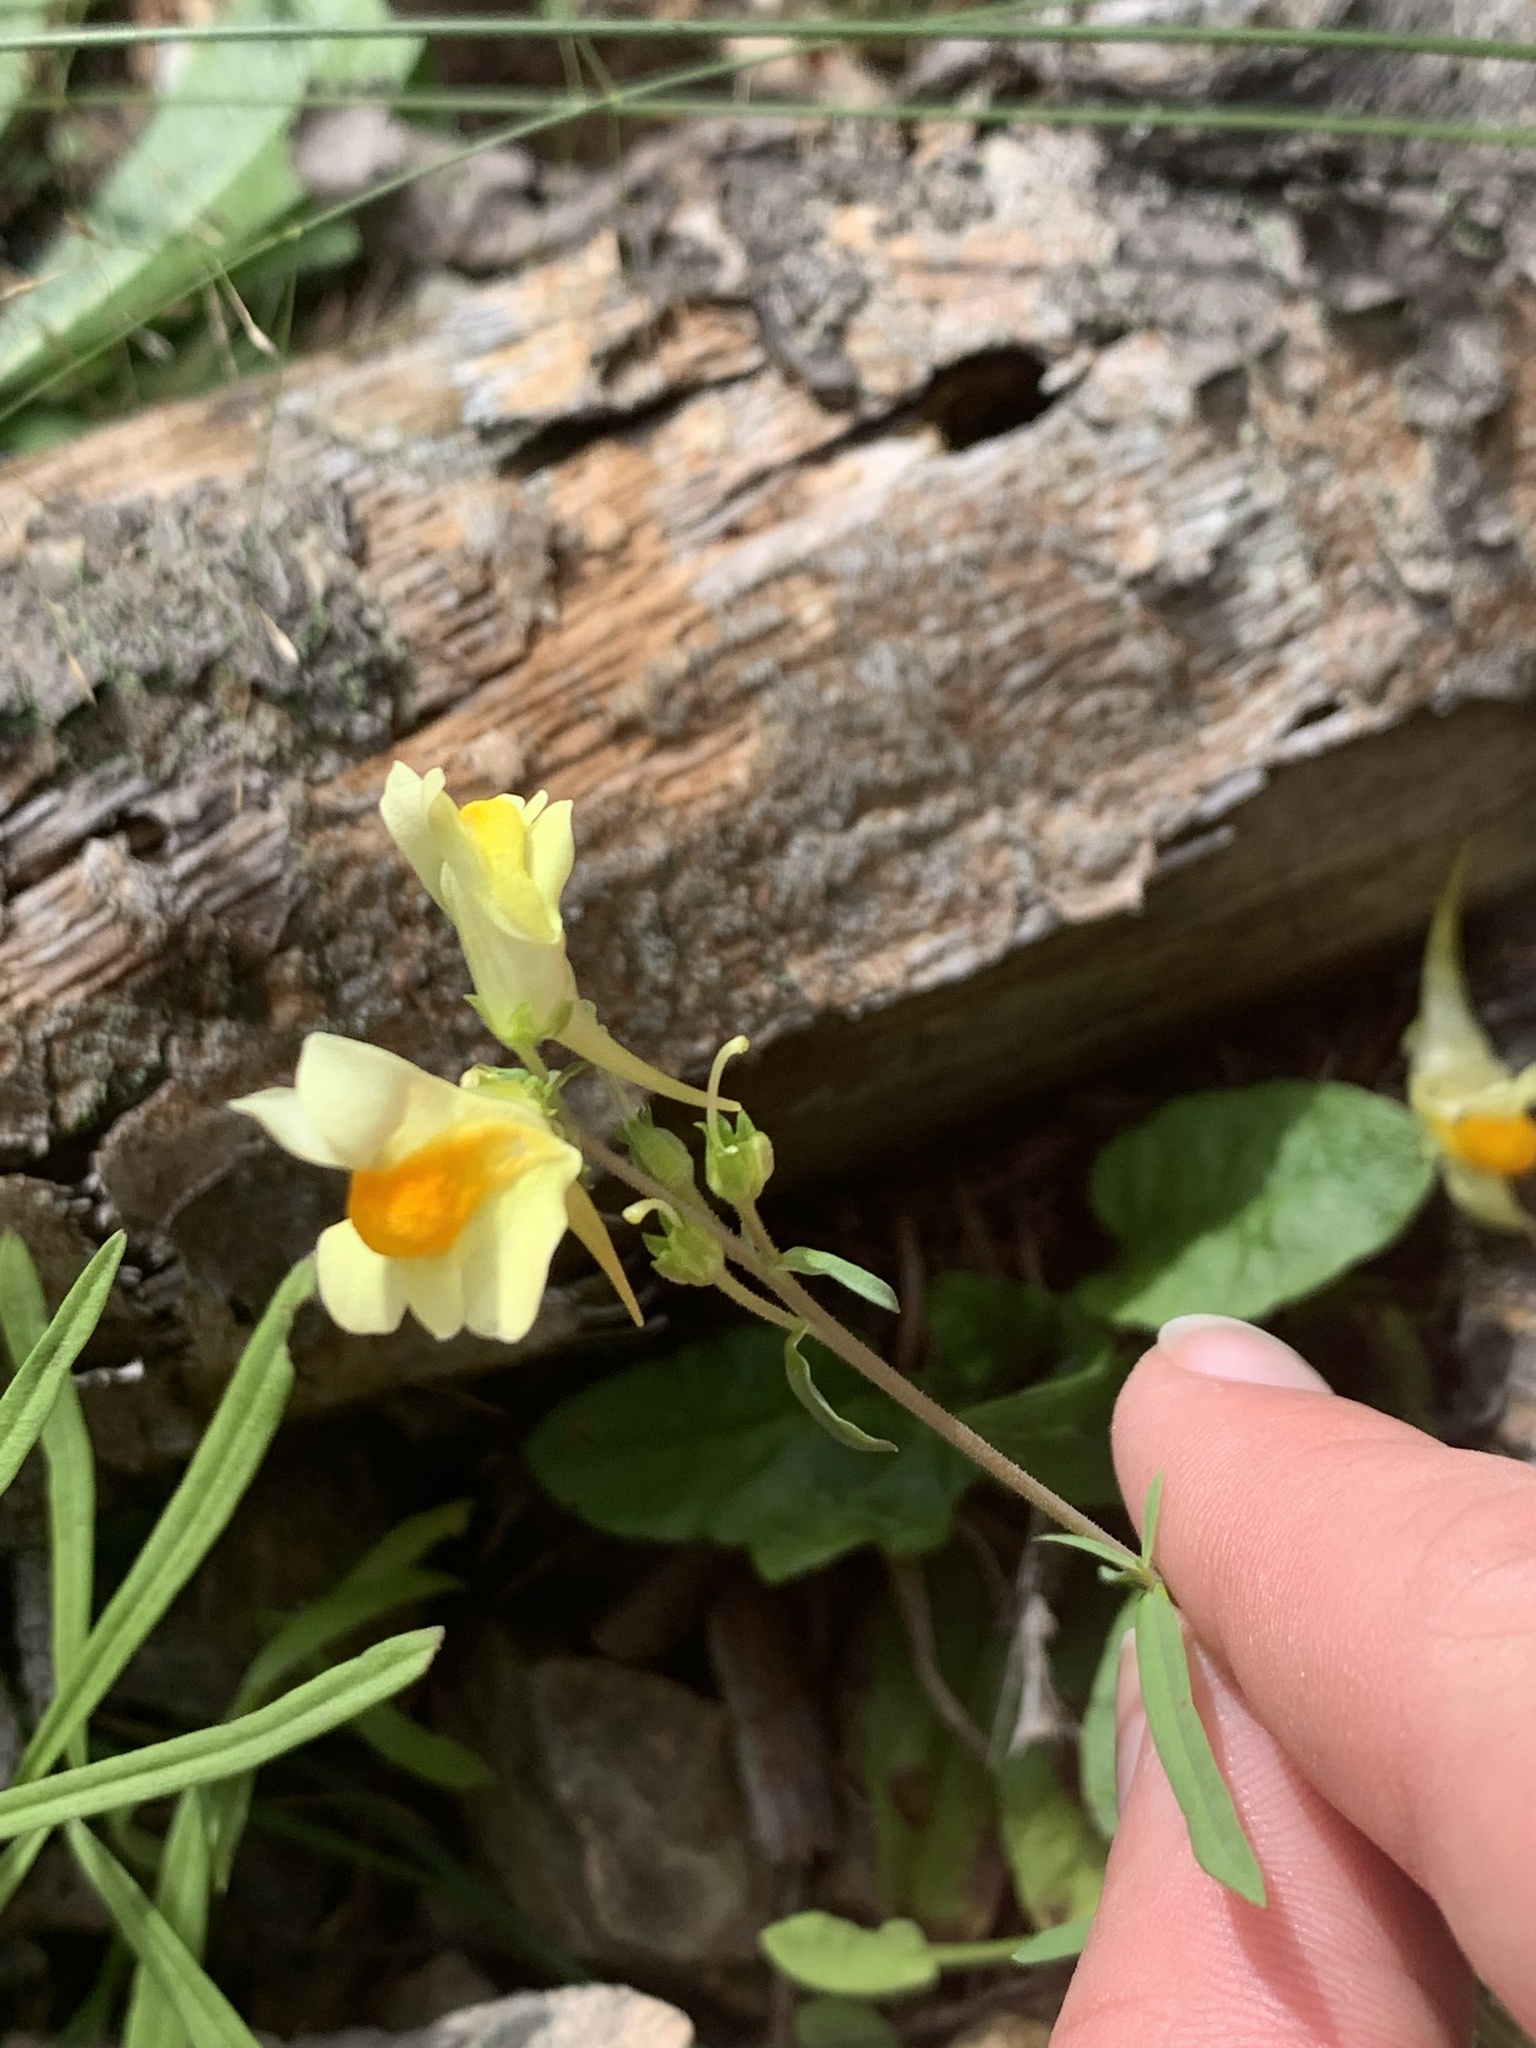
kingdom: Plantae
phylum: Tracheophyta
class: Magnoliopsida
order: Lamiales
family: Plantaginaceae
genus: Linaria
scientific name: Linaria vulgaris
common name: Butter and eggs
